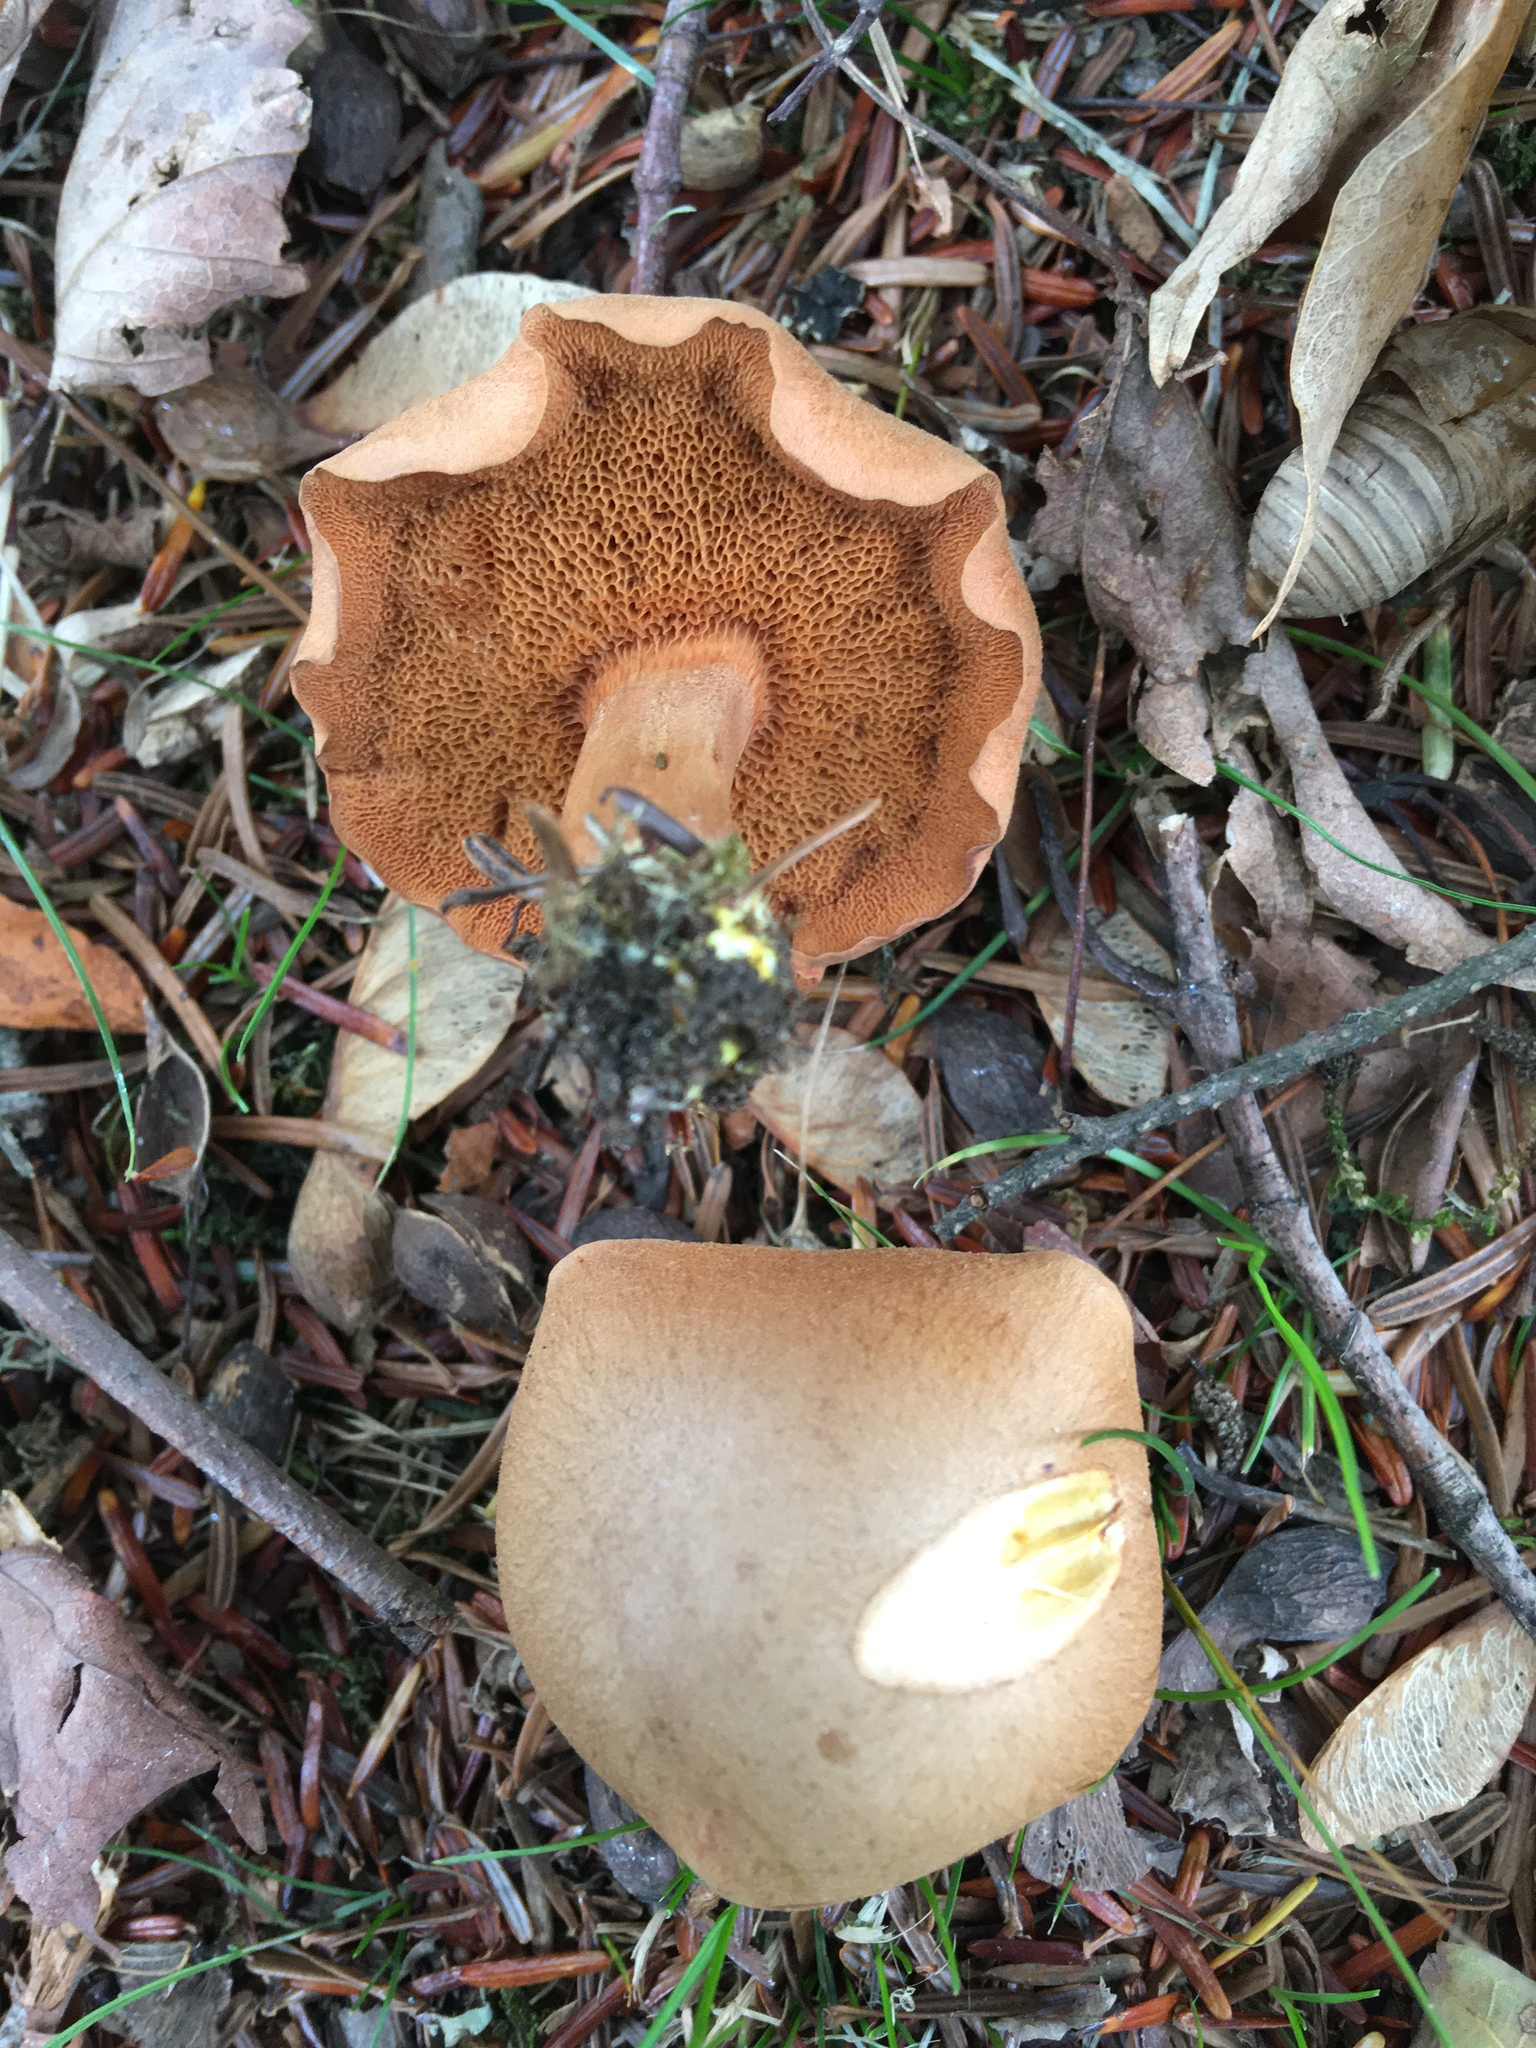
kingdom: Fungi
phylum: Basidiomycota
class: Agaricomycetes
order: Boletales
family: Boletaceae
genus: Chalciporus
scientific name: Chalciporus piperatus
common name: Peppery bolete
